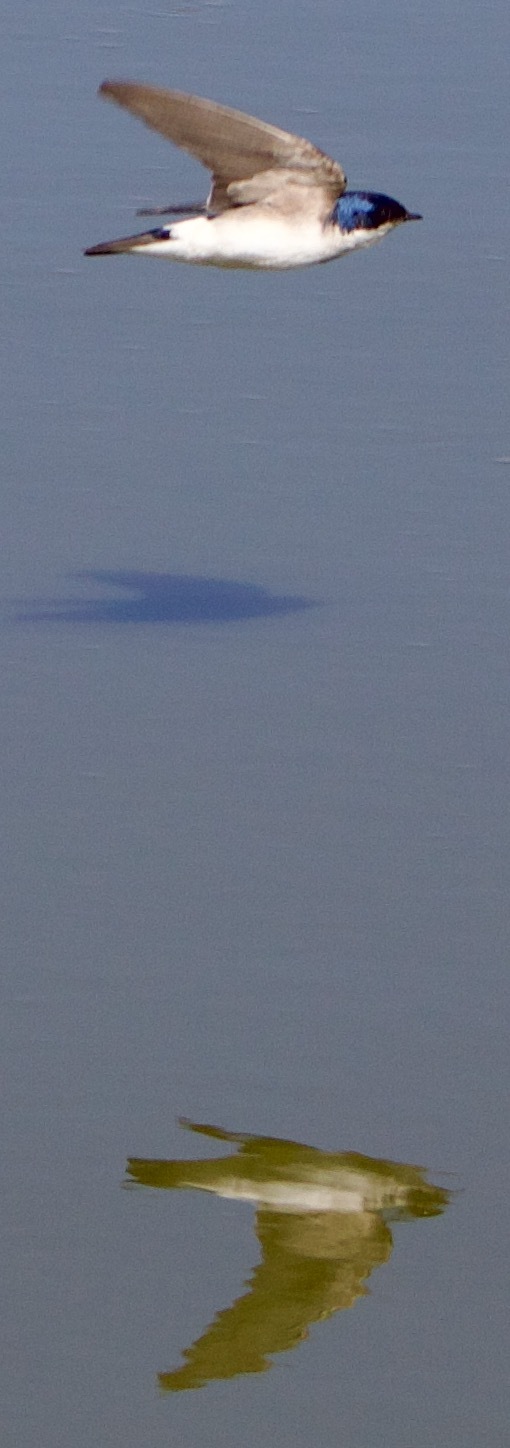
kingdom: Animalia
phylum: Chordata
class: Aves
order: Passeriformes
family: Hirundinidae
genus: Tachycineta
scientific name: Tachycineta leucopyga
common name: Chilean swallow
